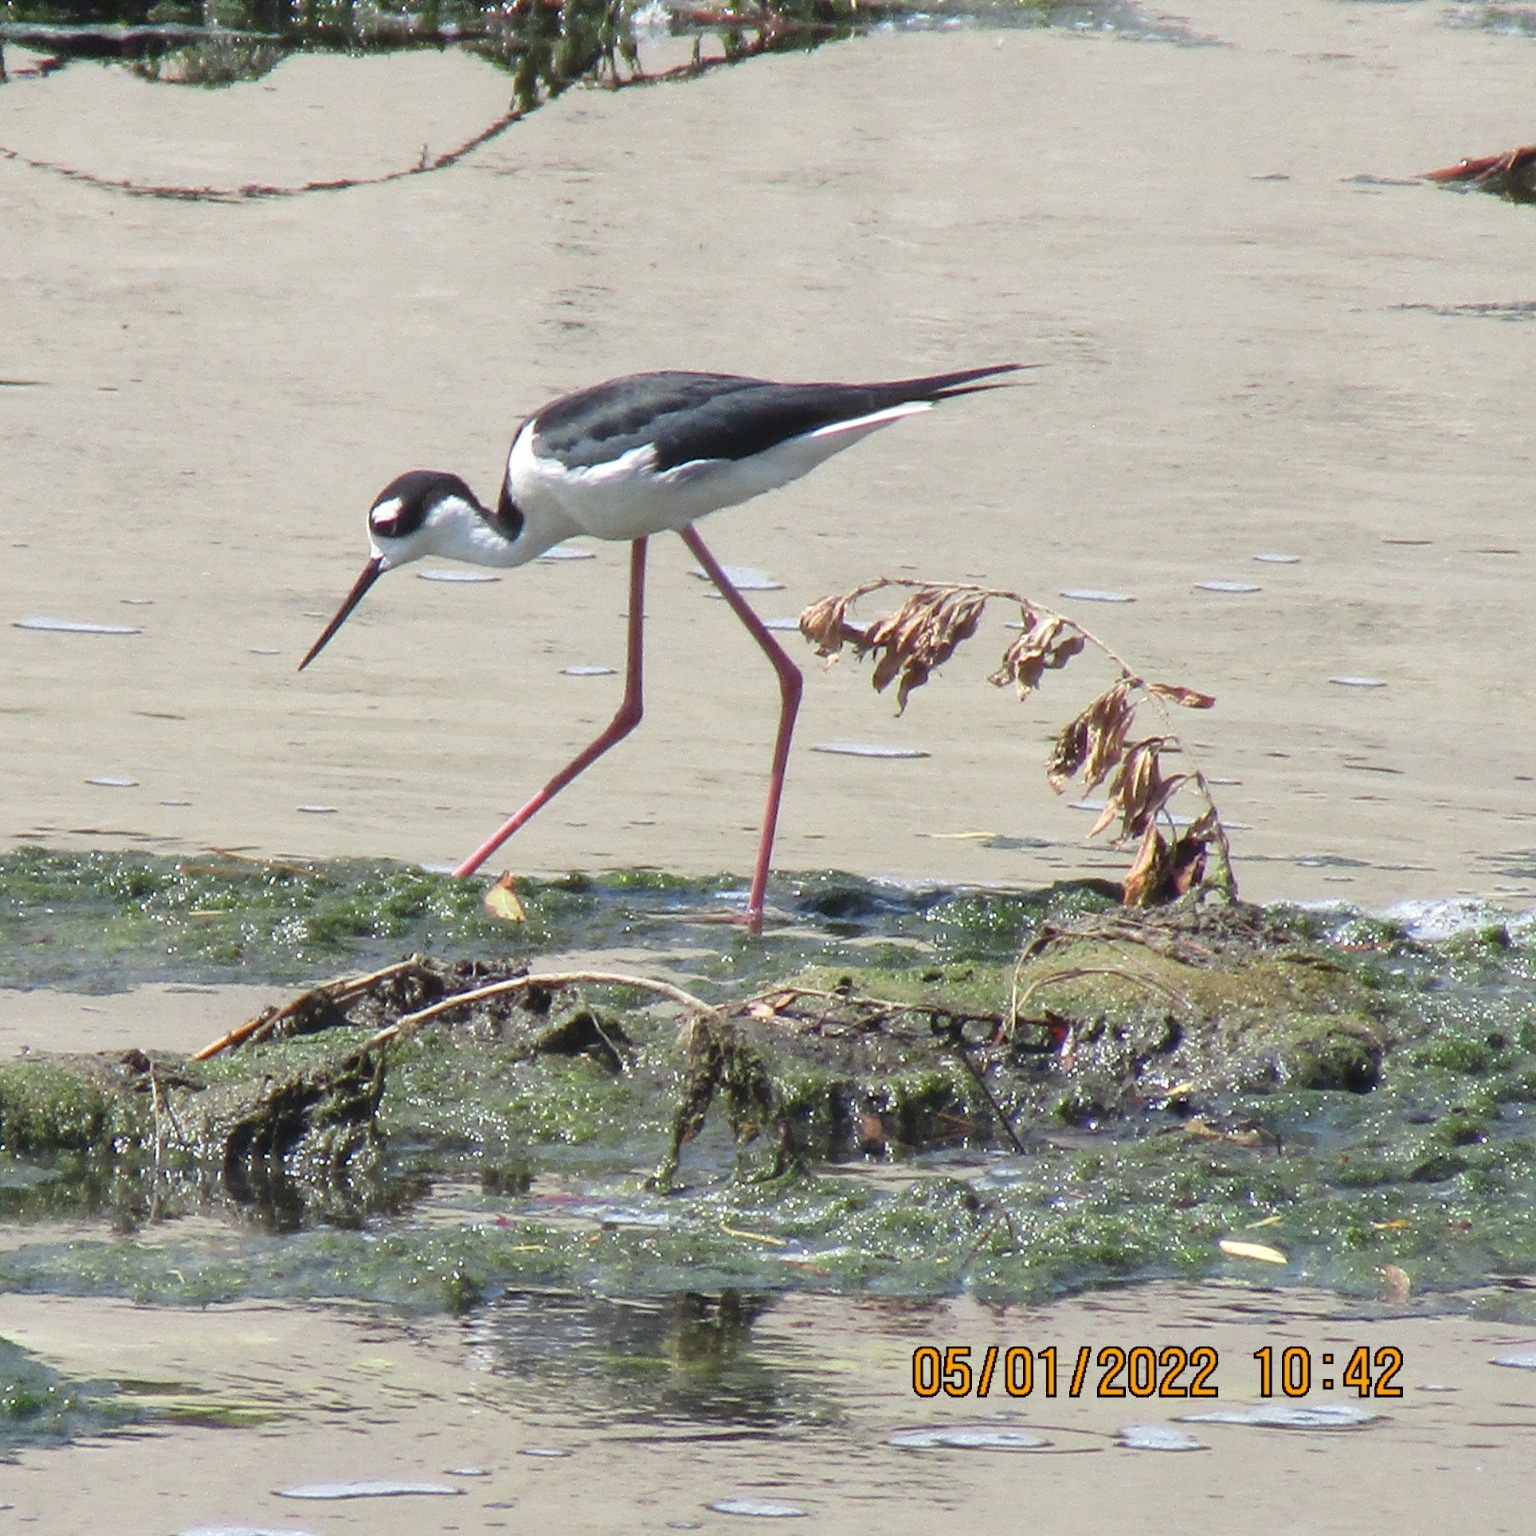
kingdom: Animalia
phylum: Chordata
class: Aves
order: Charadriiformes
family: Recurvirostridae
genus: Himantopus
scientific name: Himantopus mexicanus
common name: Black-necked stilt
